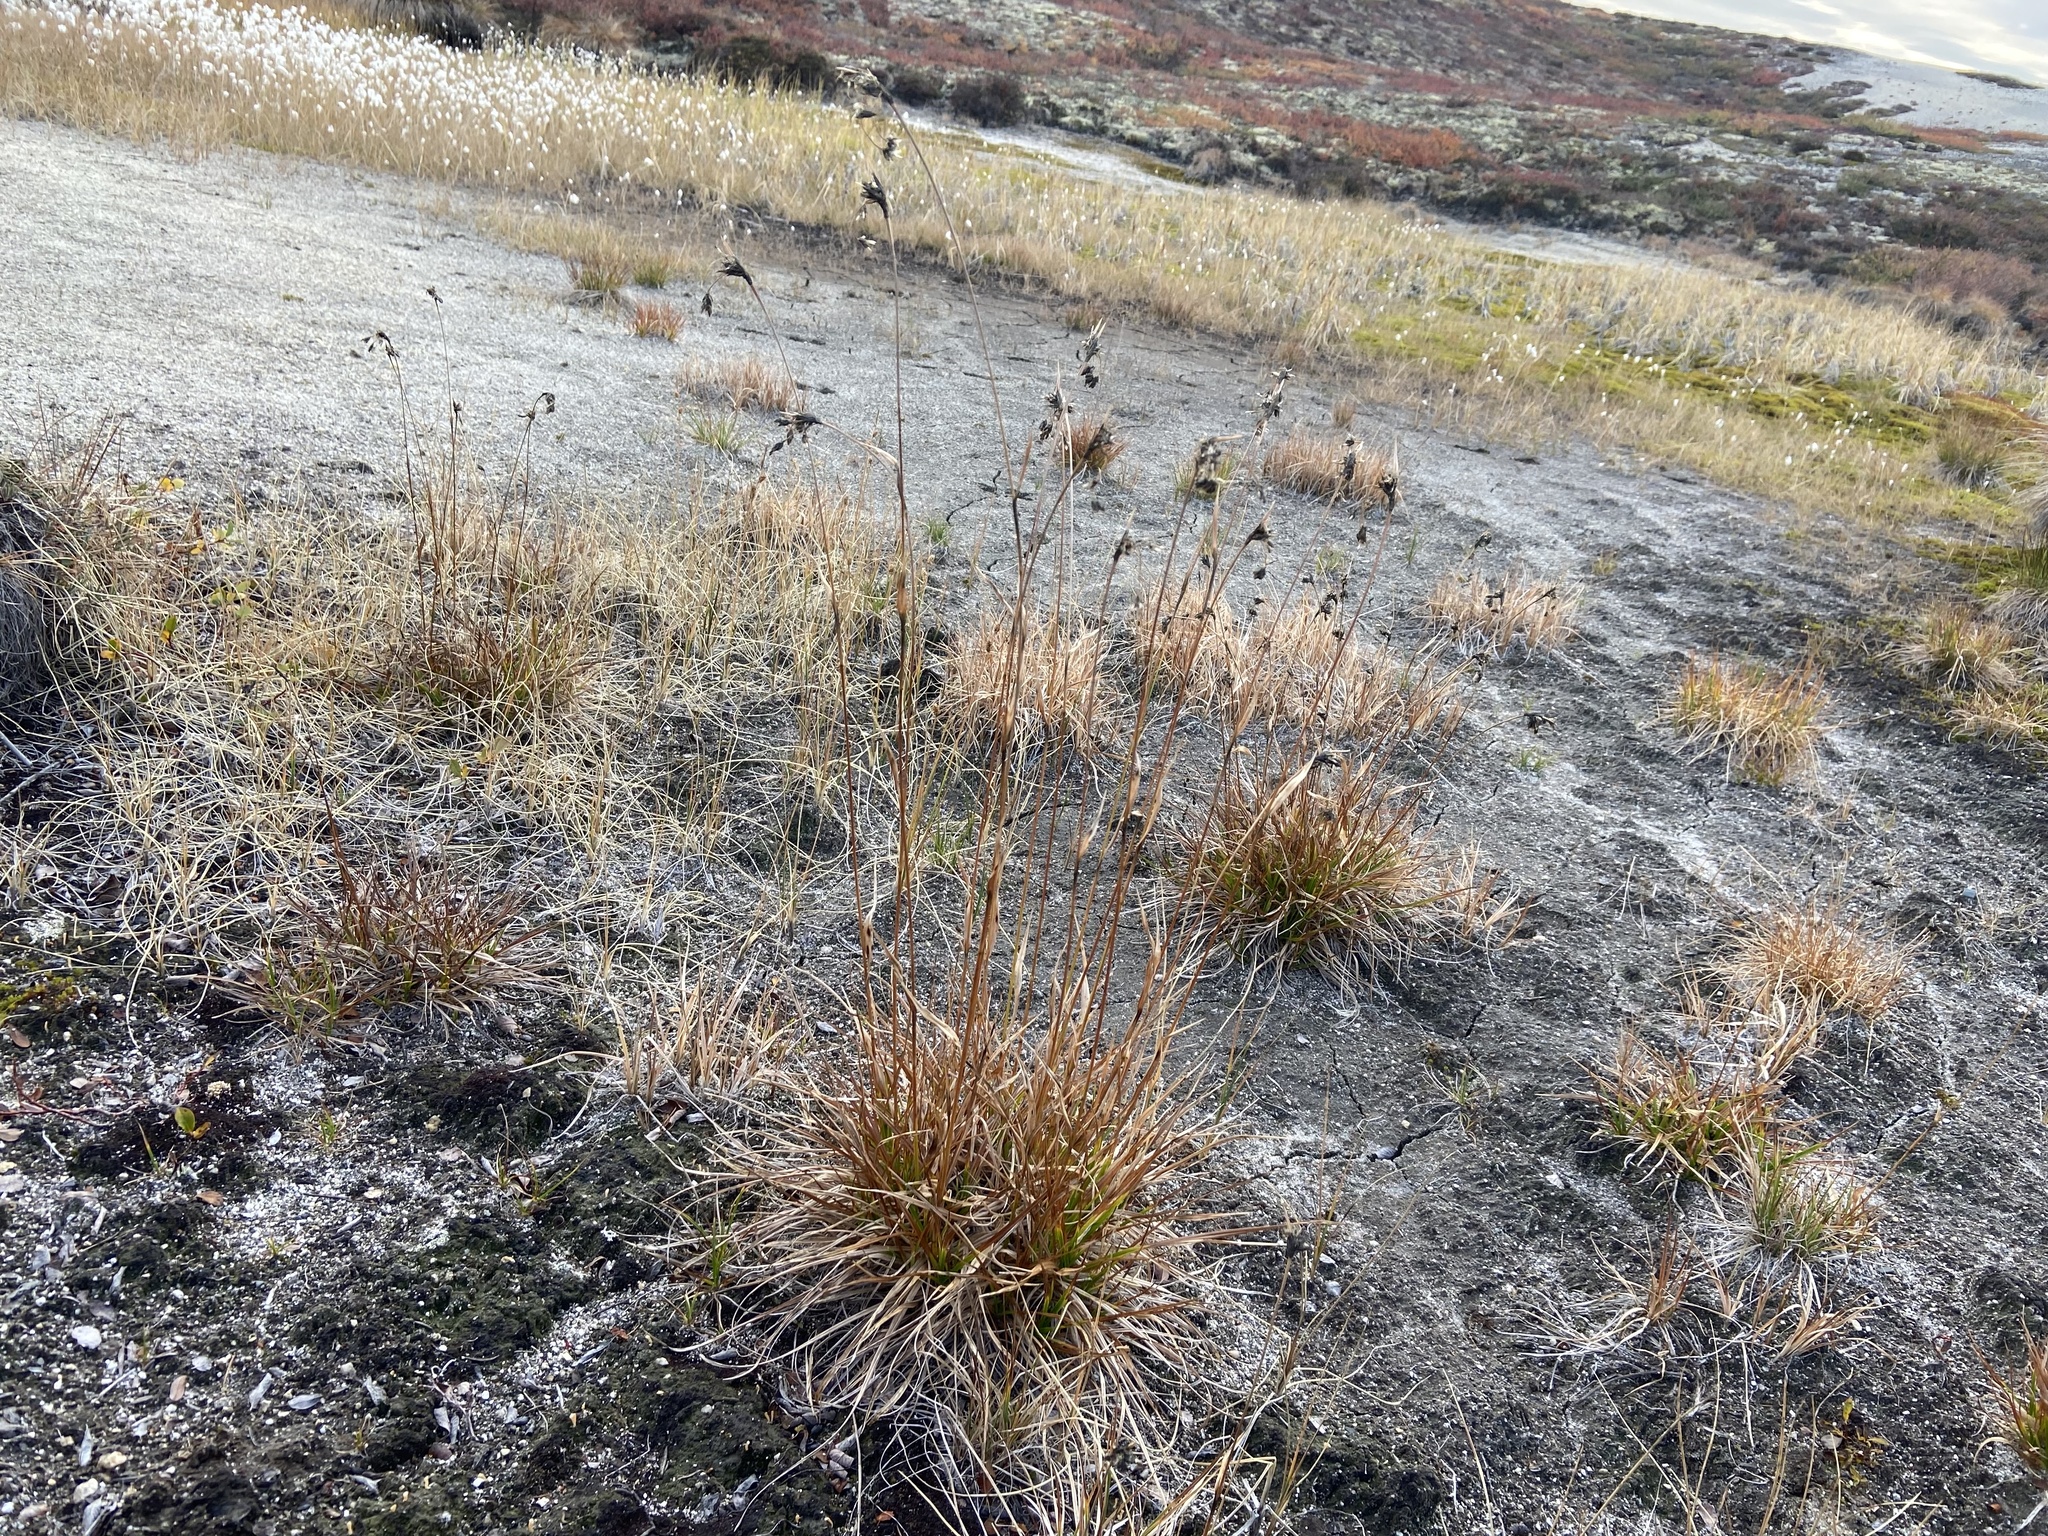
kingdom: Plantae
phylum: Tracheophyta
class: Liliopsida
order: Poales
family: Cyperaceae
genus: Scirpus
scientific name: Scirpus maximowiczii
